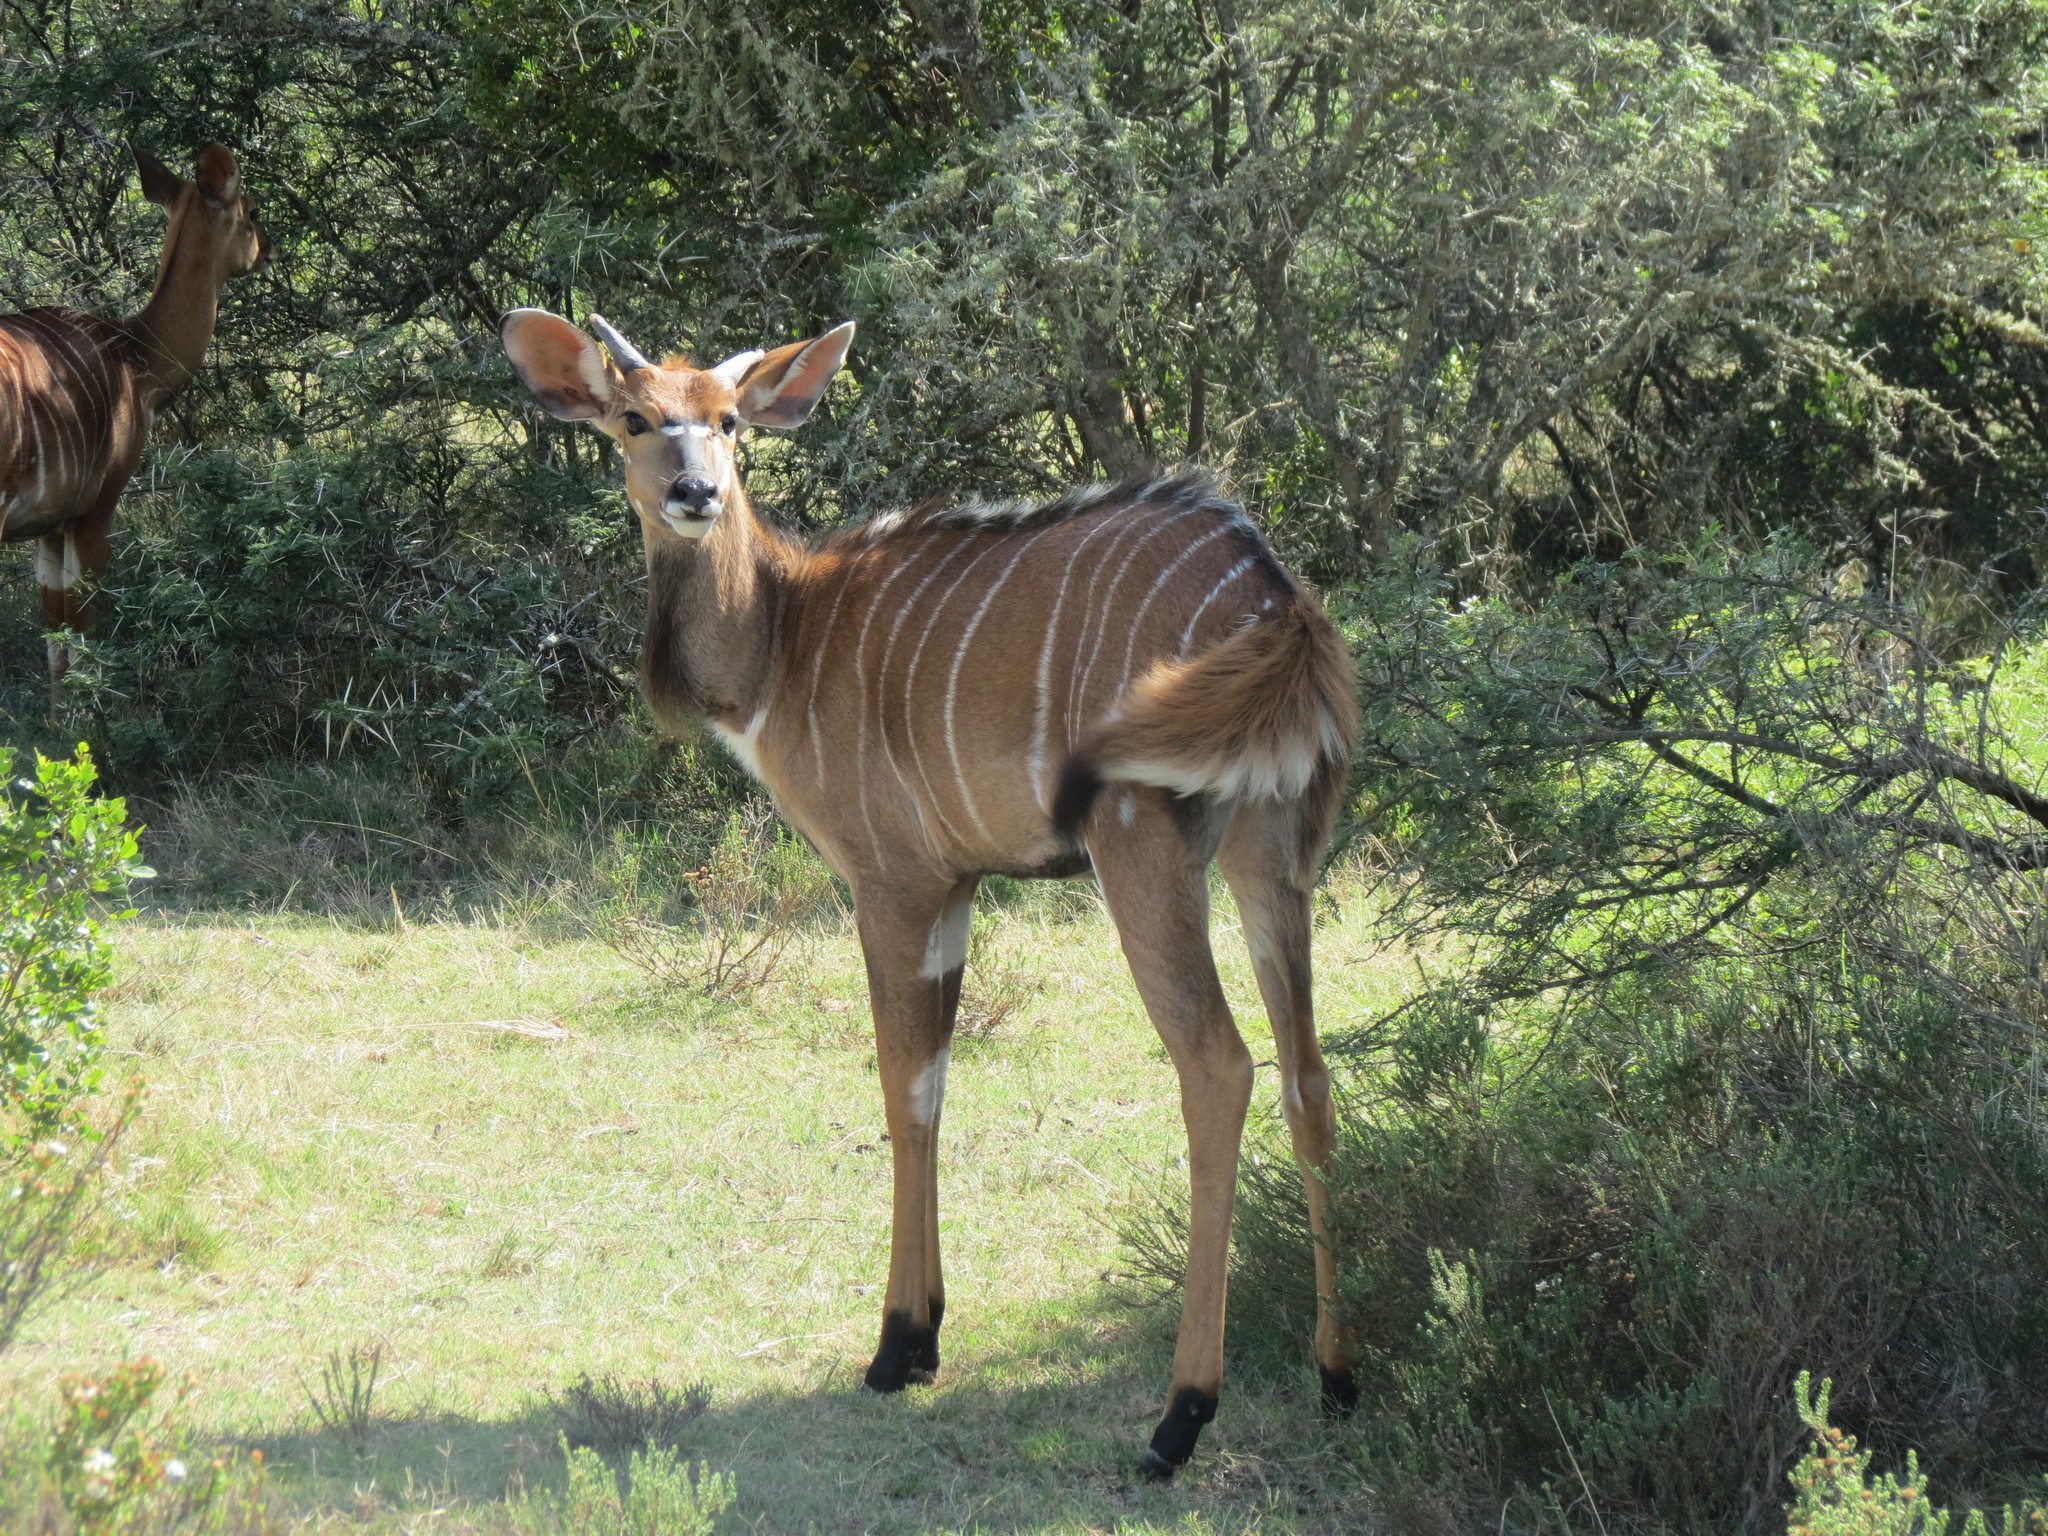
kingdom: Animalia
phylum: Chordata
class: Mammalia
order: Artiodactyla
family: Bovidae
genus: Tragelaphus
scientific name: Tragelaphus angasii
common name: Nyala
